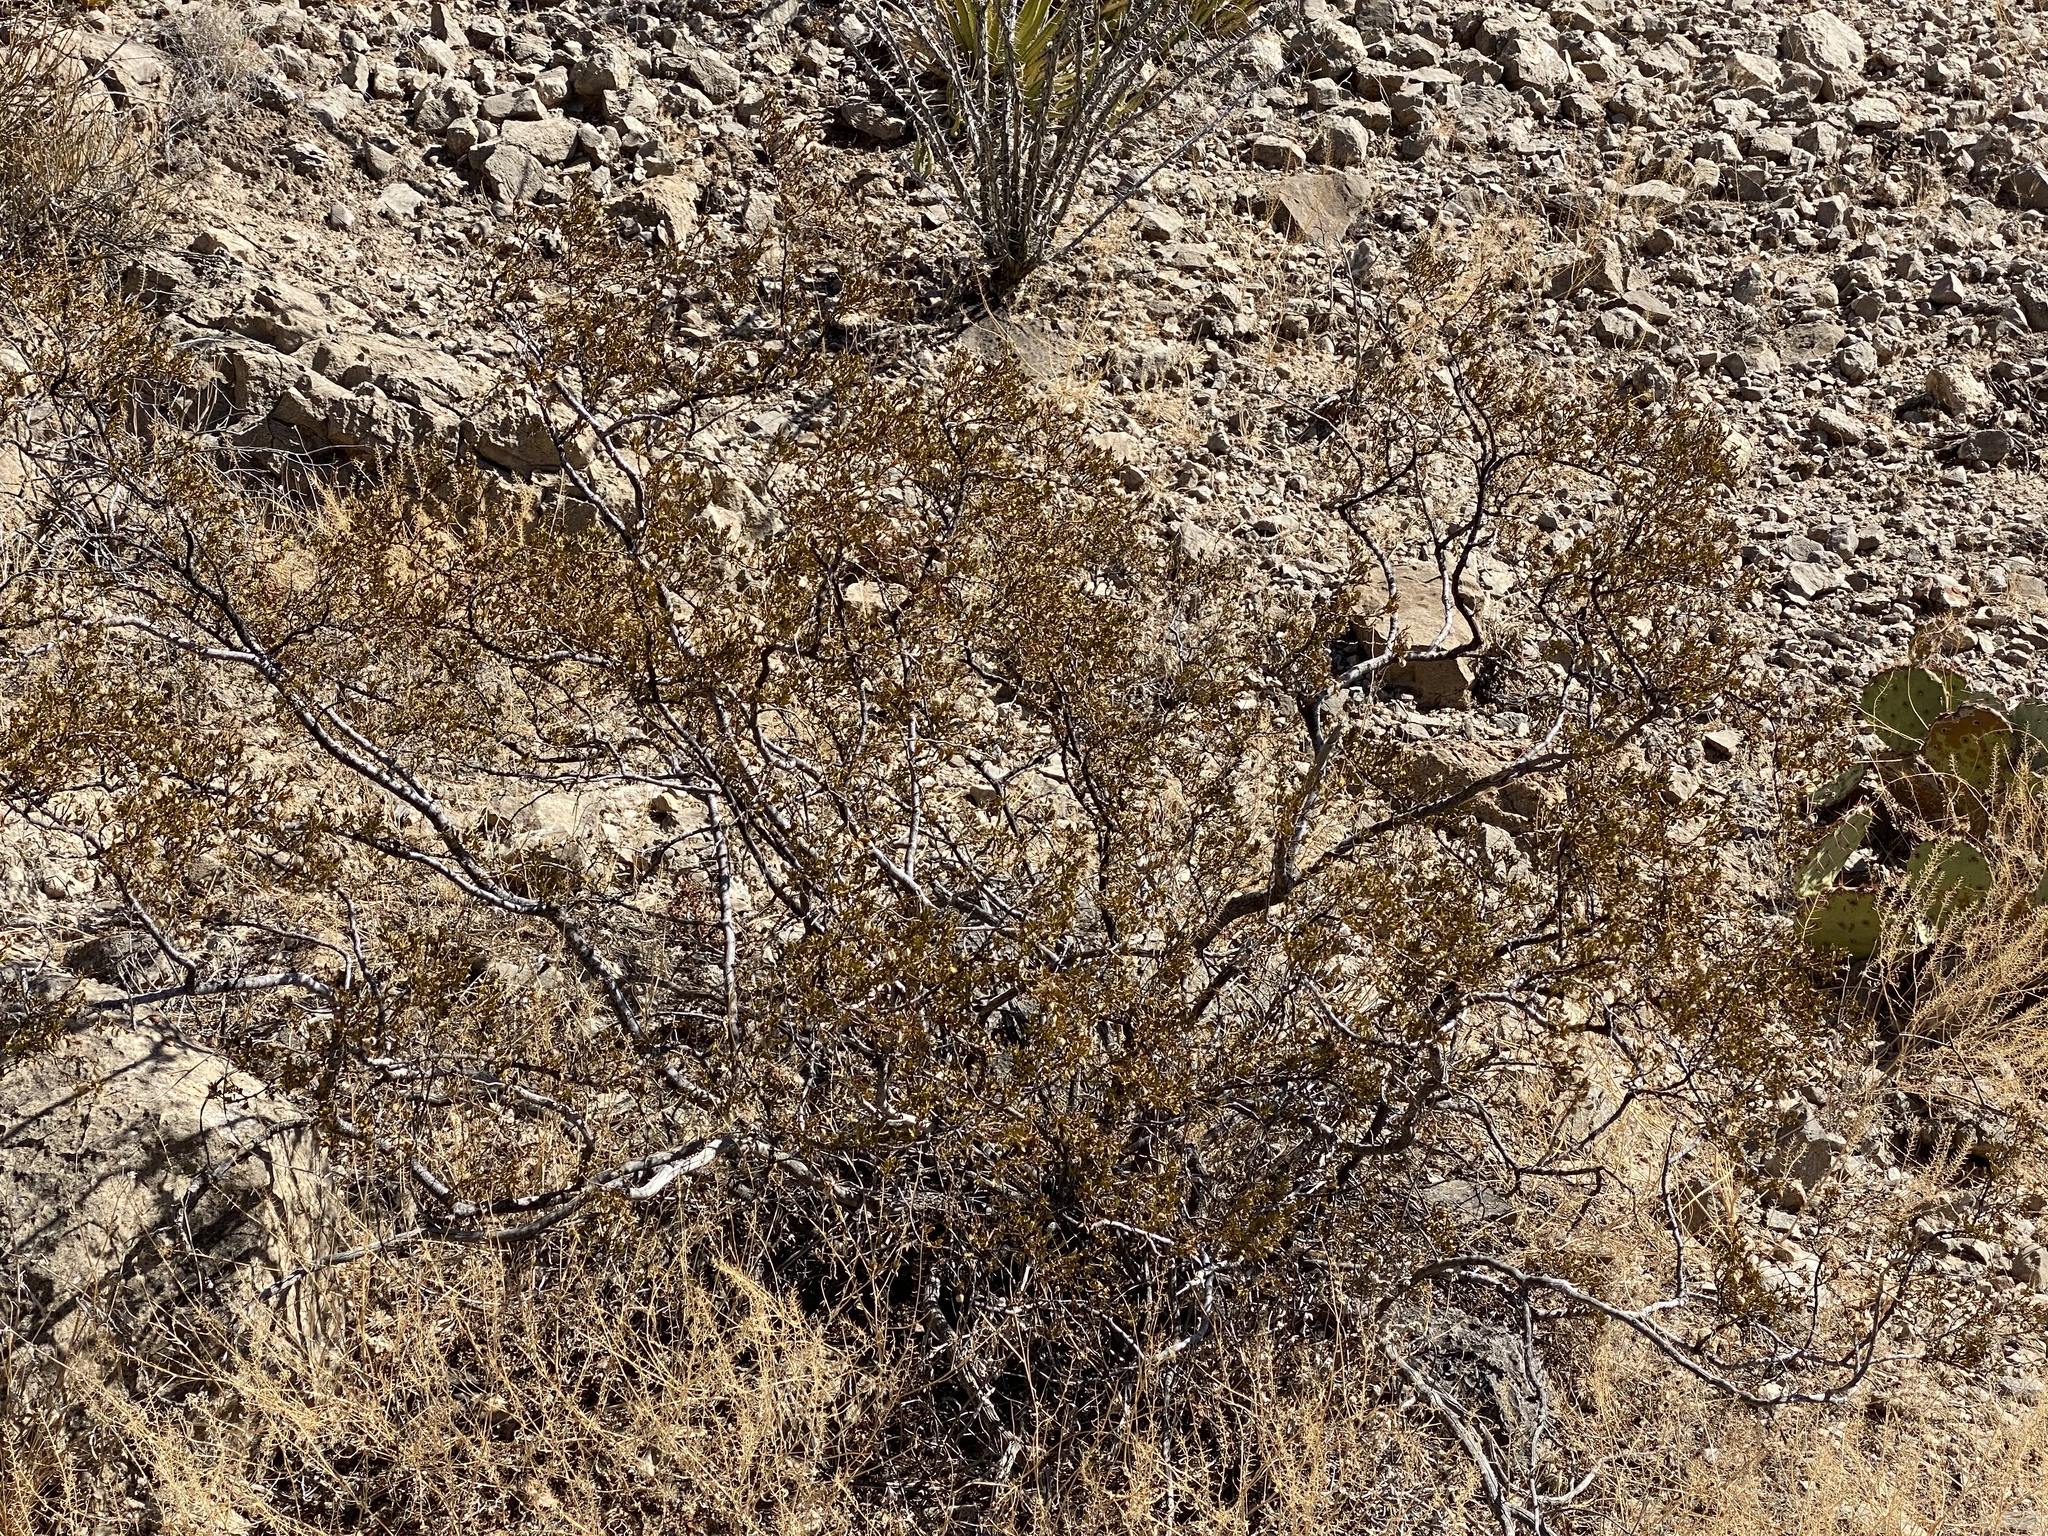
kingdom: Plantae
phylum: Tracheophyta
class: Magnoliopsida
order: Zygophyllales
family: Zygophyllaceae
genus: Larrea
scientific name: Larrea tridentata
